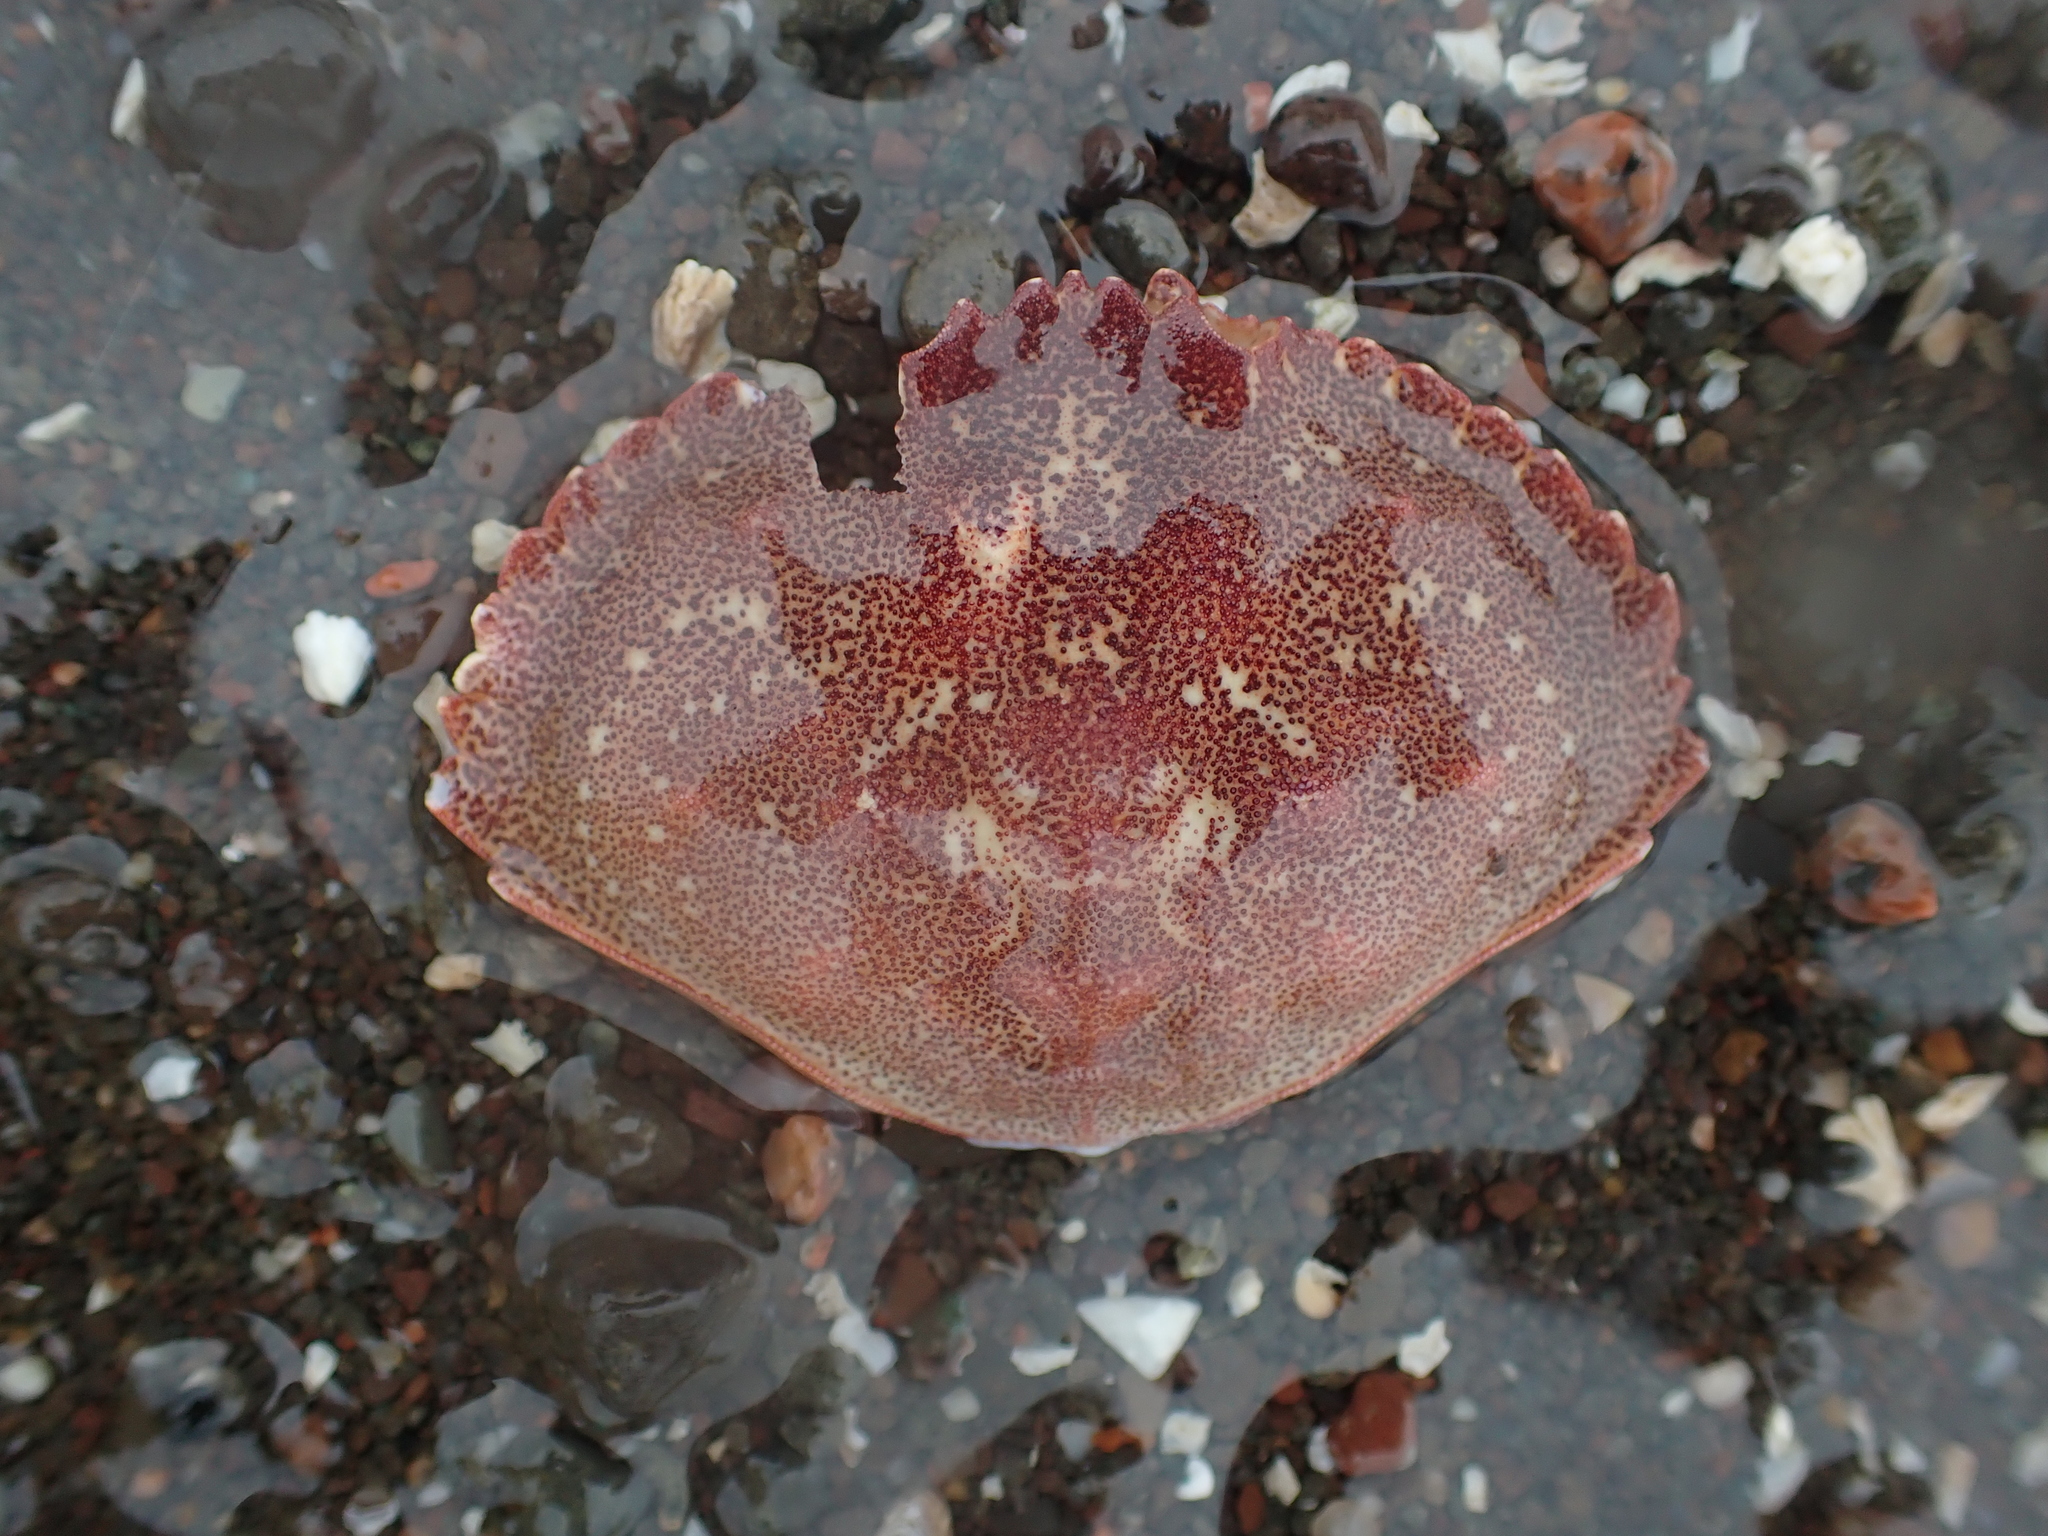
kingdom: Animalia
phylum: Arthropoda
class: Malacostraca
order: Decapoda
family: Cancridae
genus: Cancer
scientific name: Cancer irroratus
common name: Atlantic rock crab
